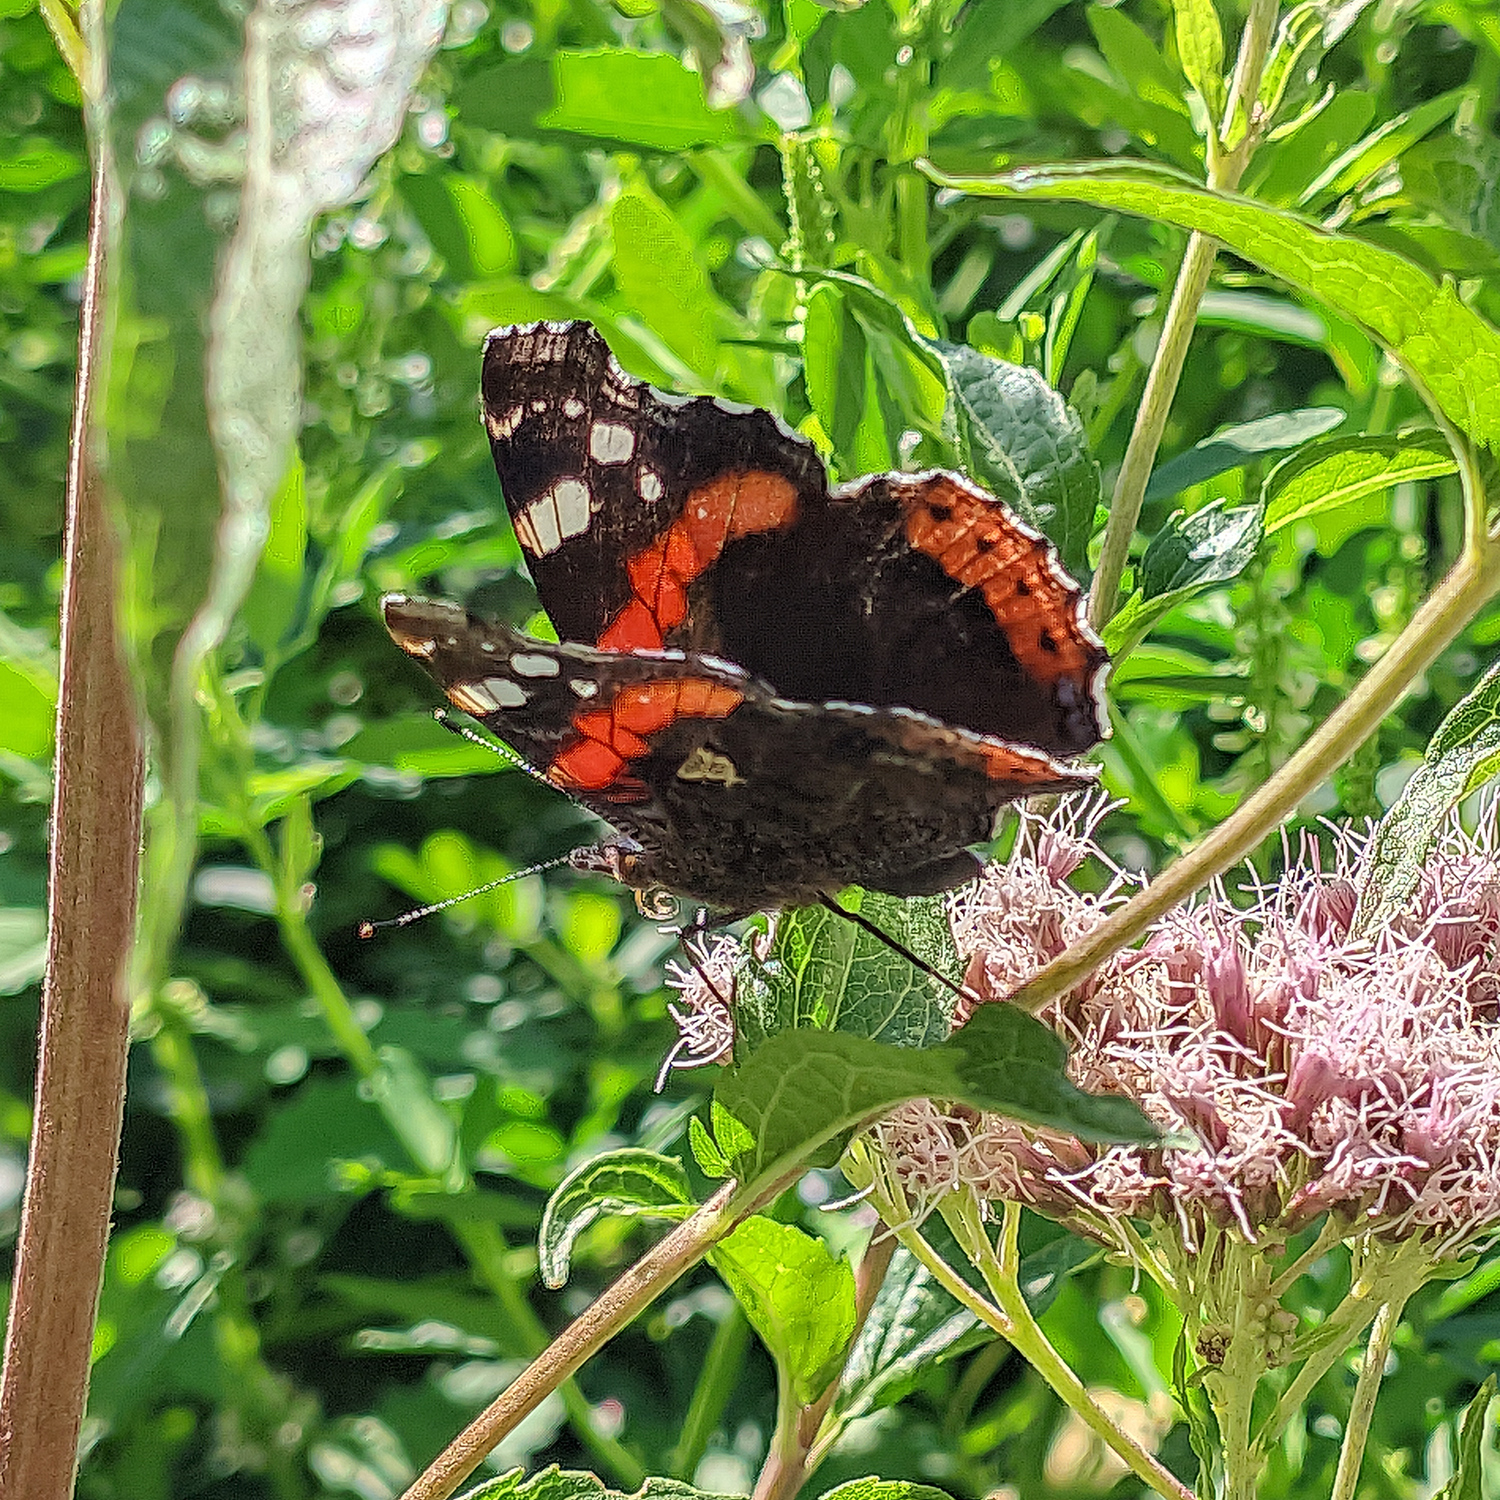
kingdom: Animalia
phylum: Arthropoda
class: Insecta
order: Lepidoptera
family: Nymphalidae
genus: Vanessa
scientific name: Vanessa atalanta
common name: Red admiral
